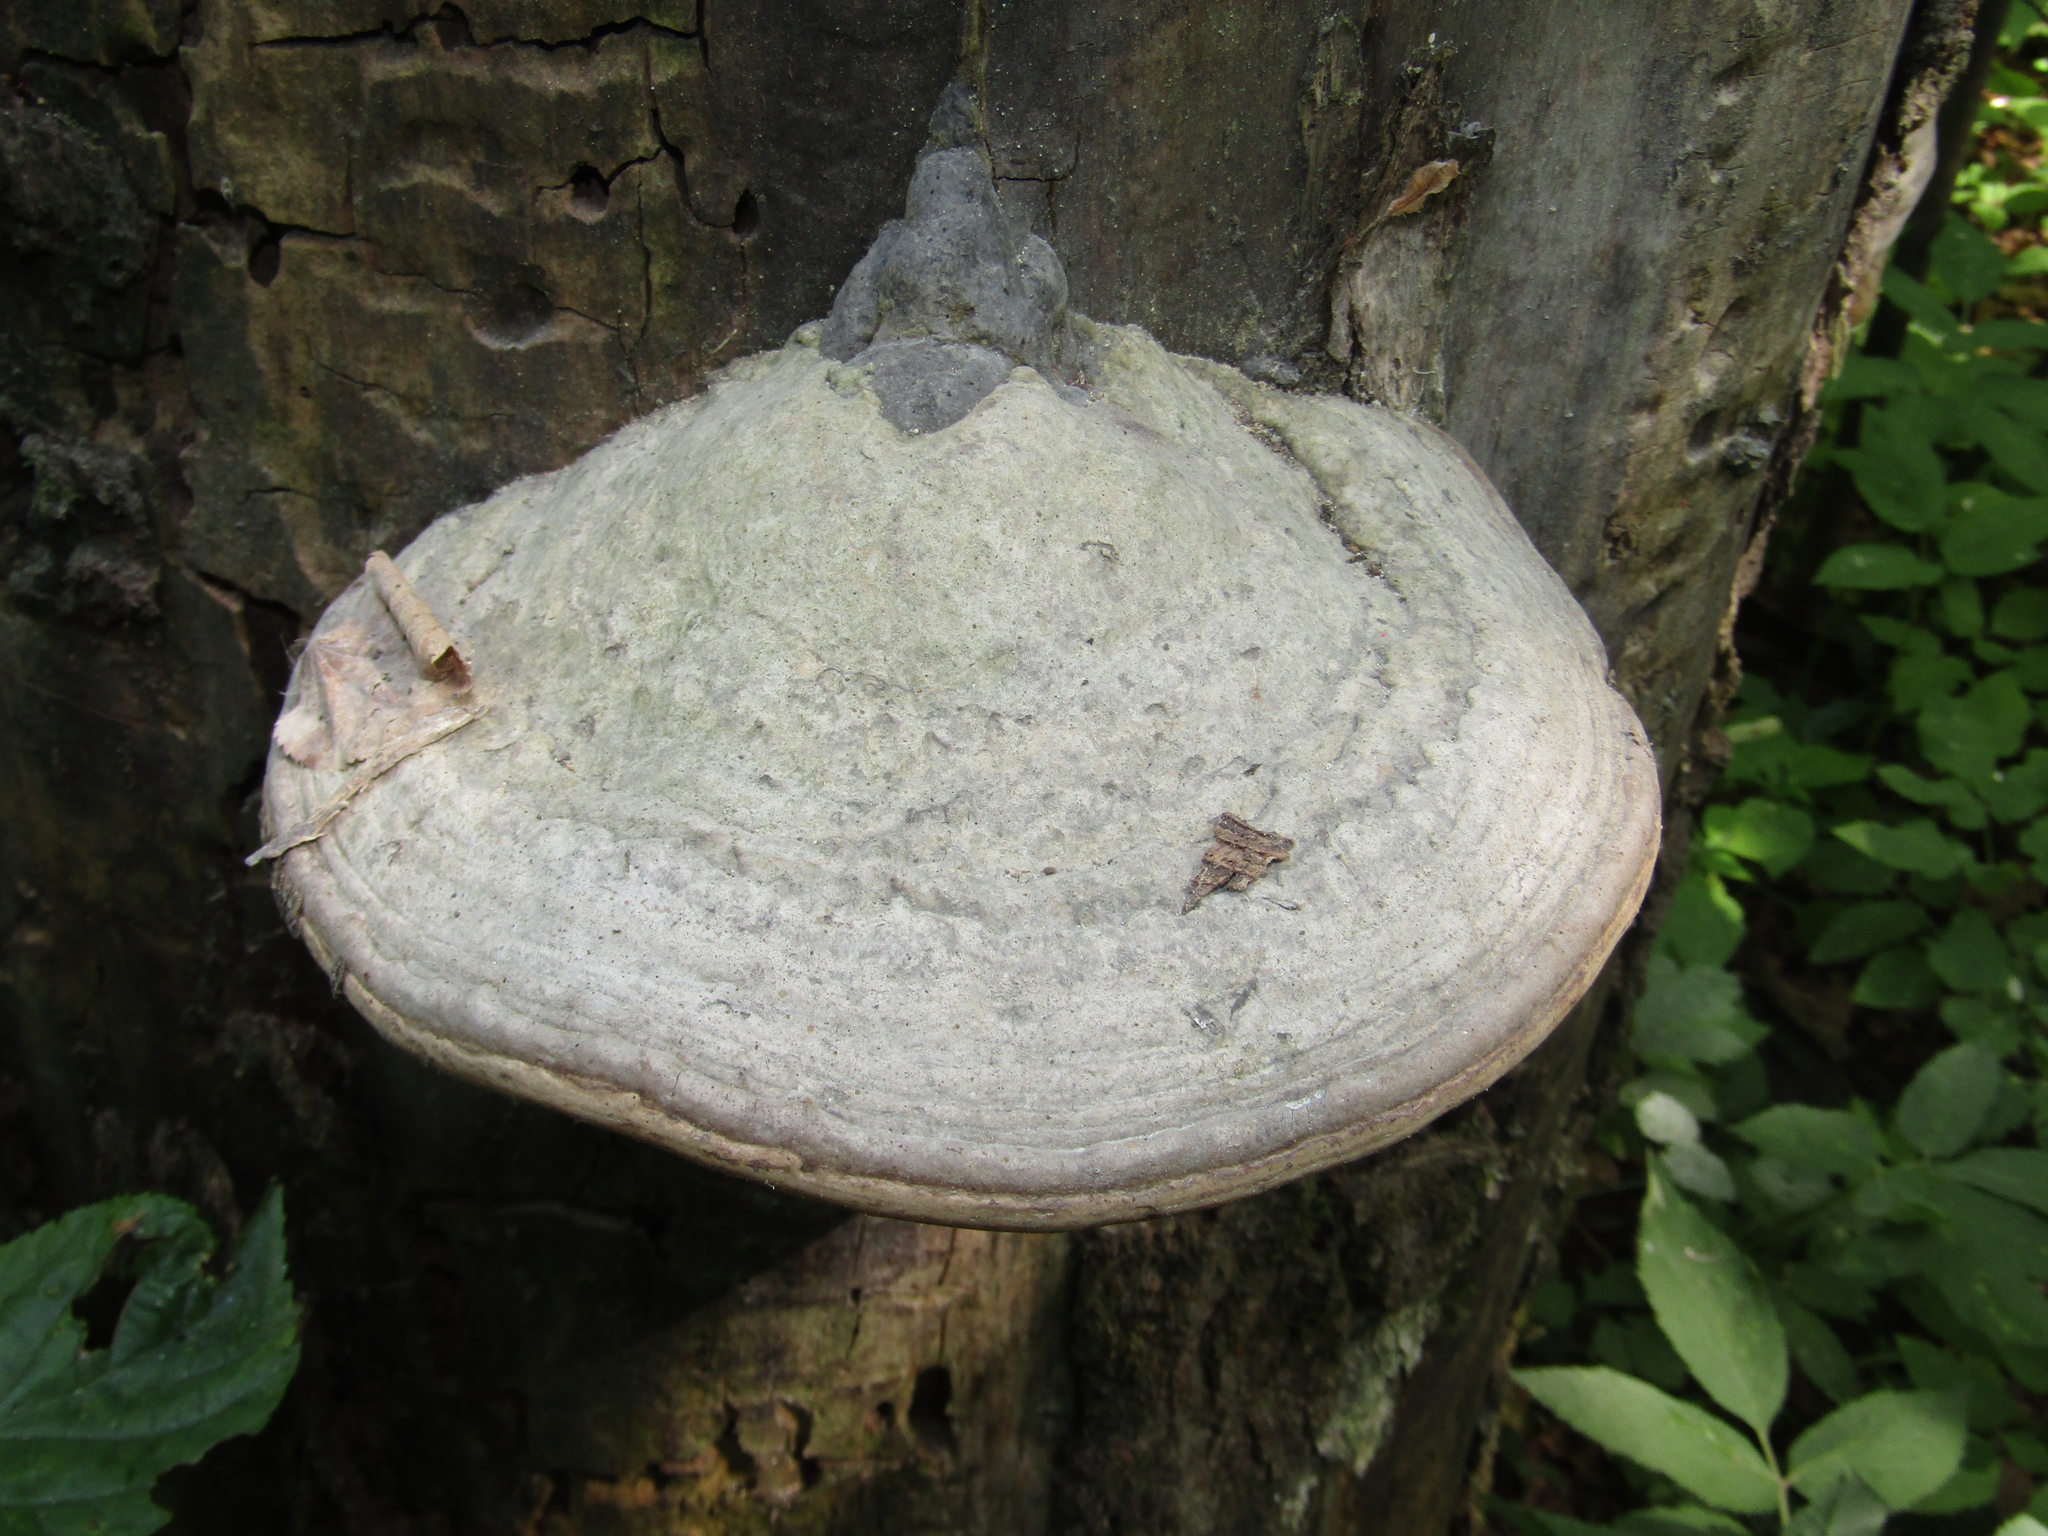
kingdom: Fungi
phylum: Basidiomycota
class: Agaricomycetes
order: Polyporales
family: Polyporaceae
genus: Fomes
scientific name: Fomes fomentarius
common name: Hoof fungus
